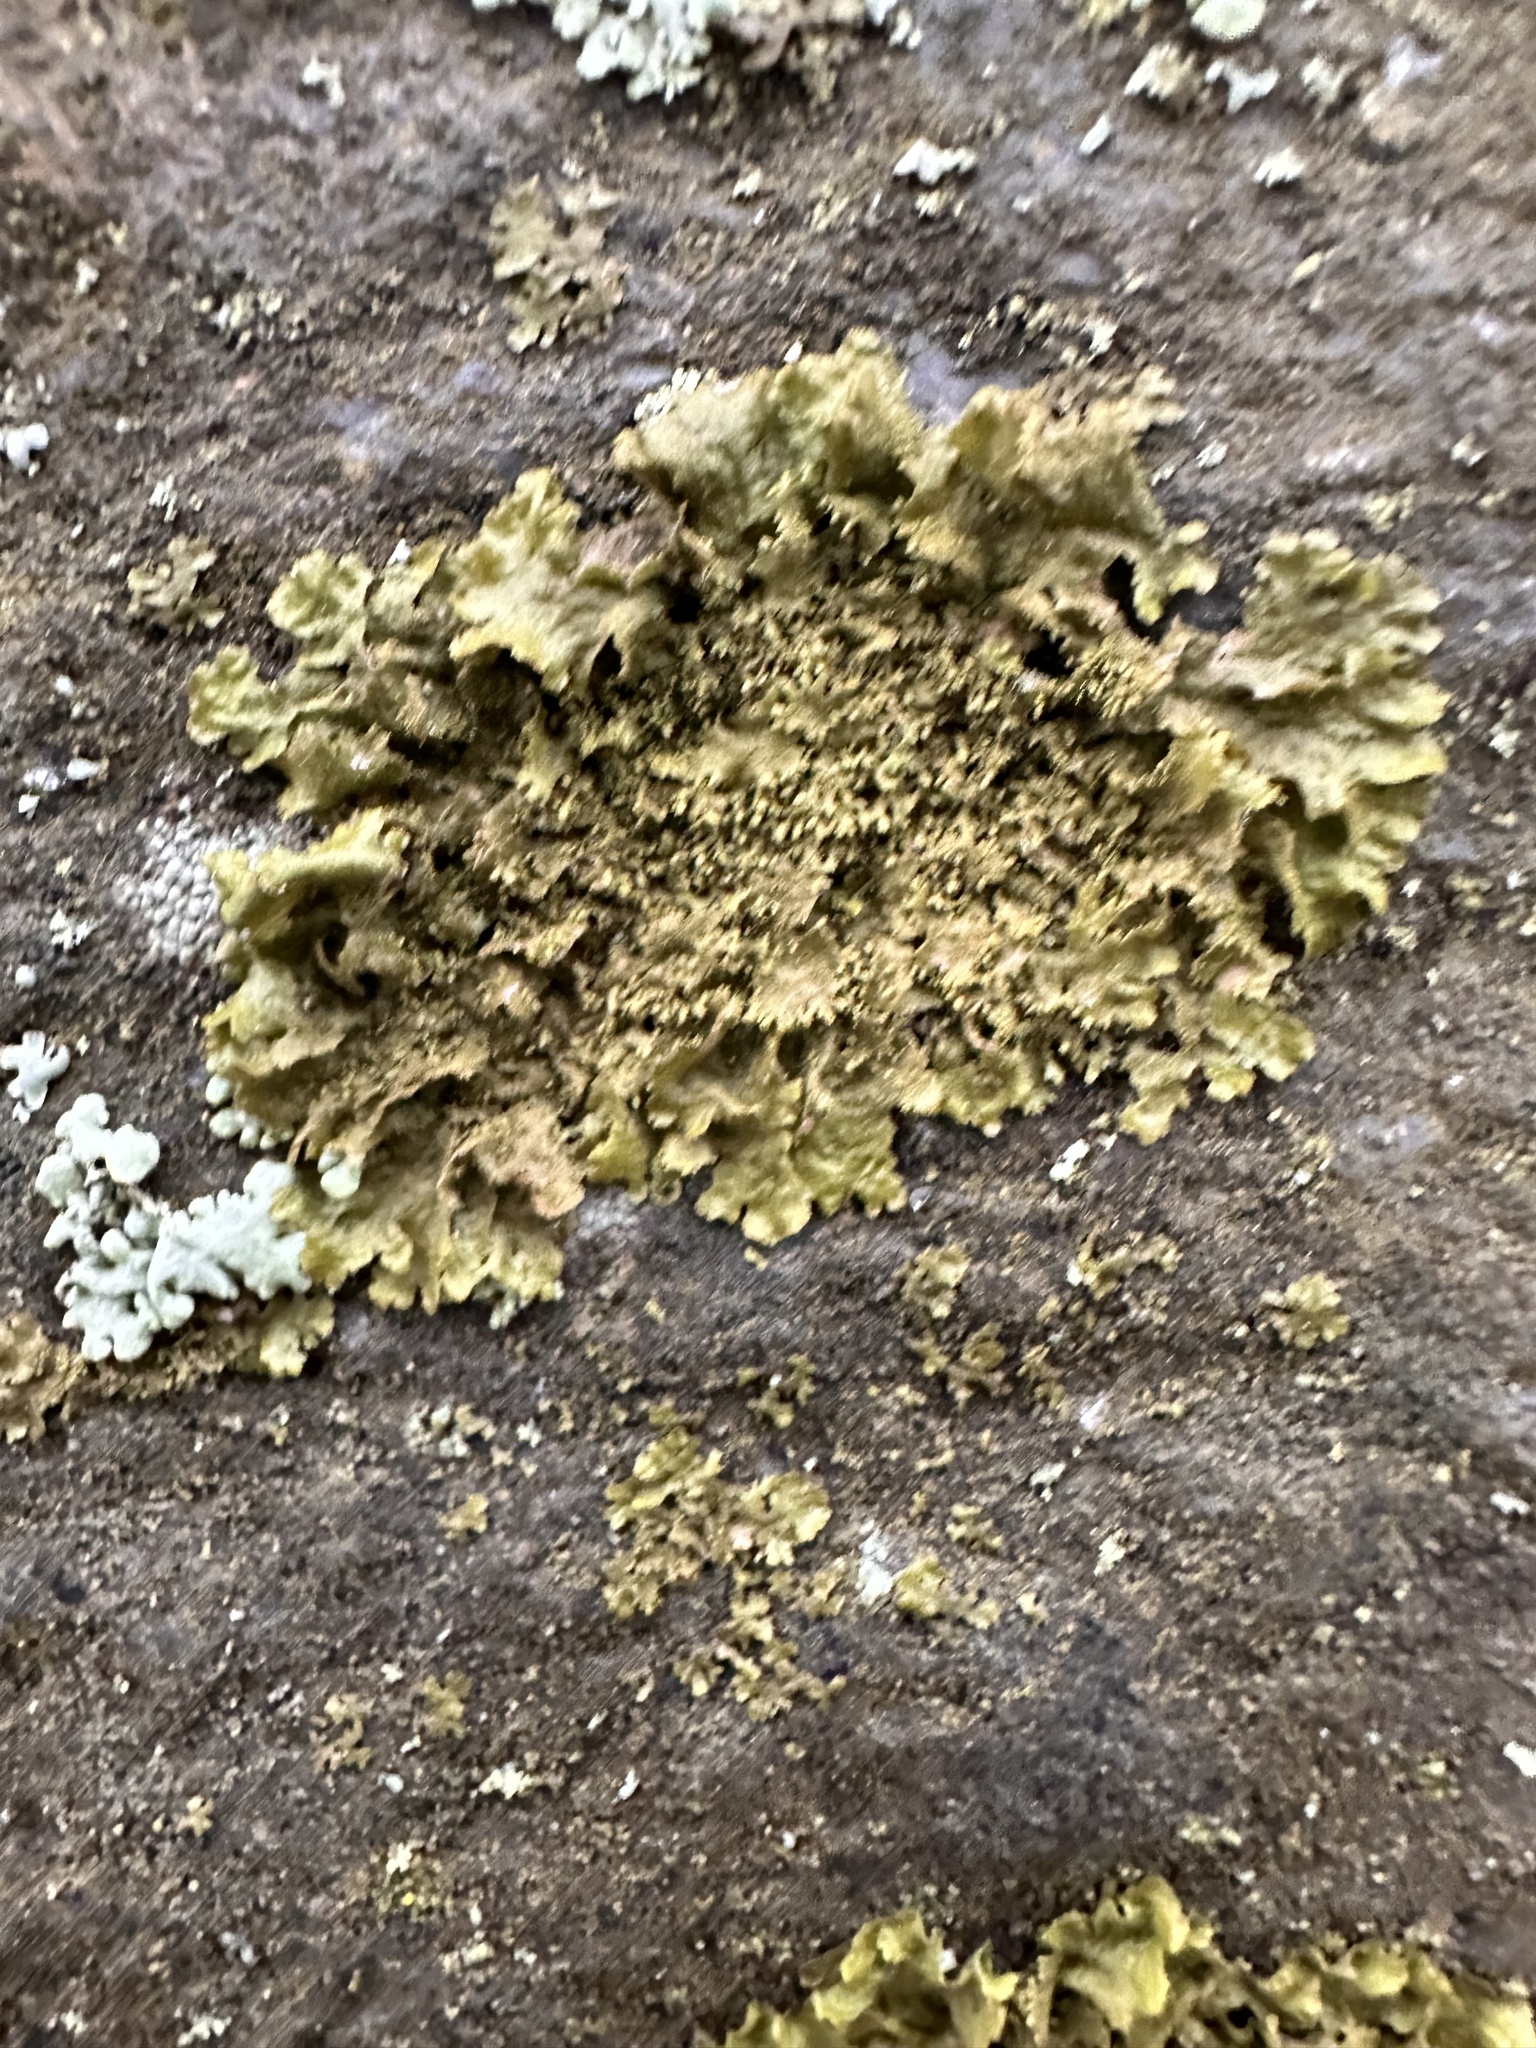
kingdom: Fungi
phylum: Ascomycota
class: Lecanoromycetes
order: Lecanorales
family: Parmeliaceae
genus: Melanohalea
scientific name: Melanohalea exasperatula
